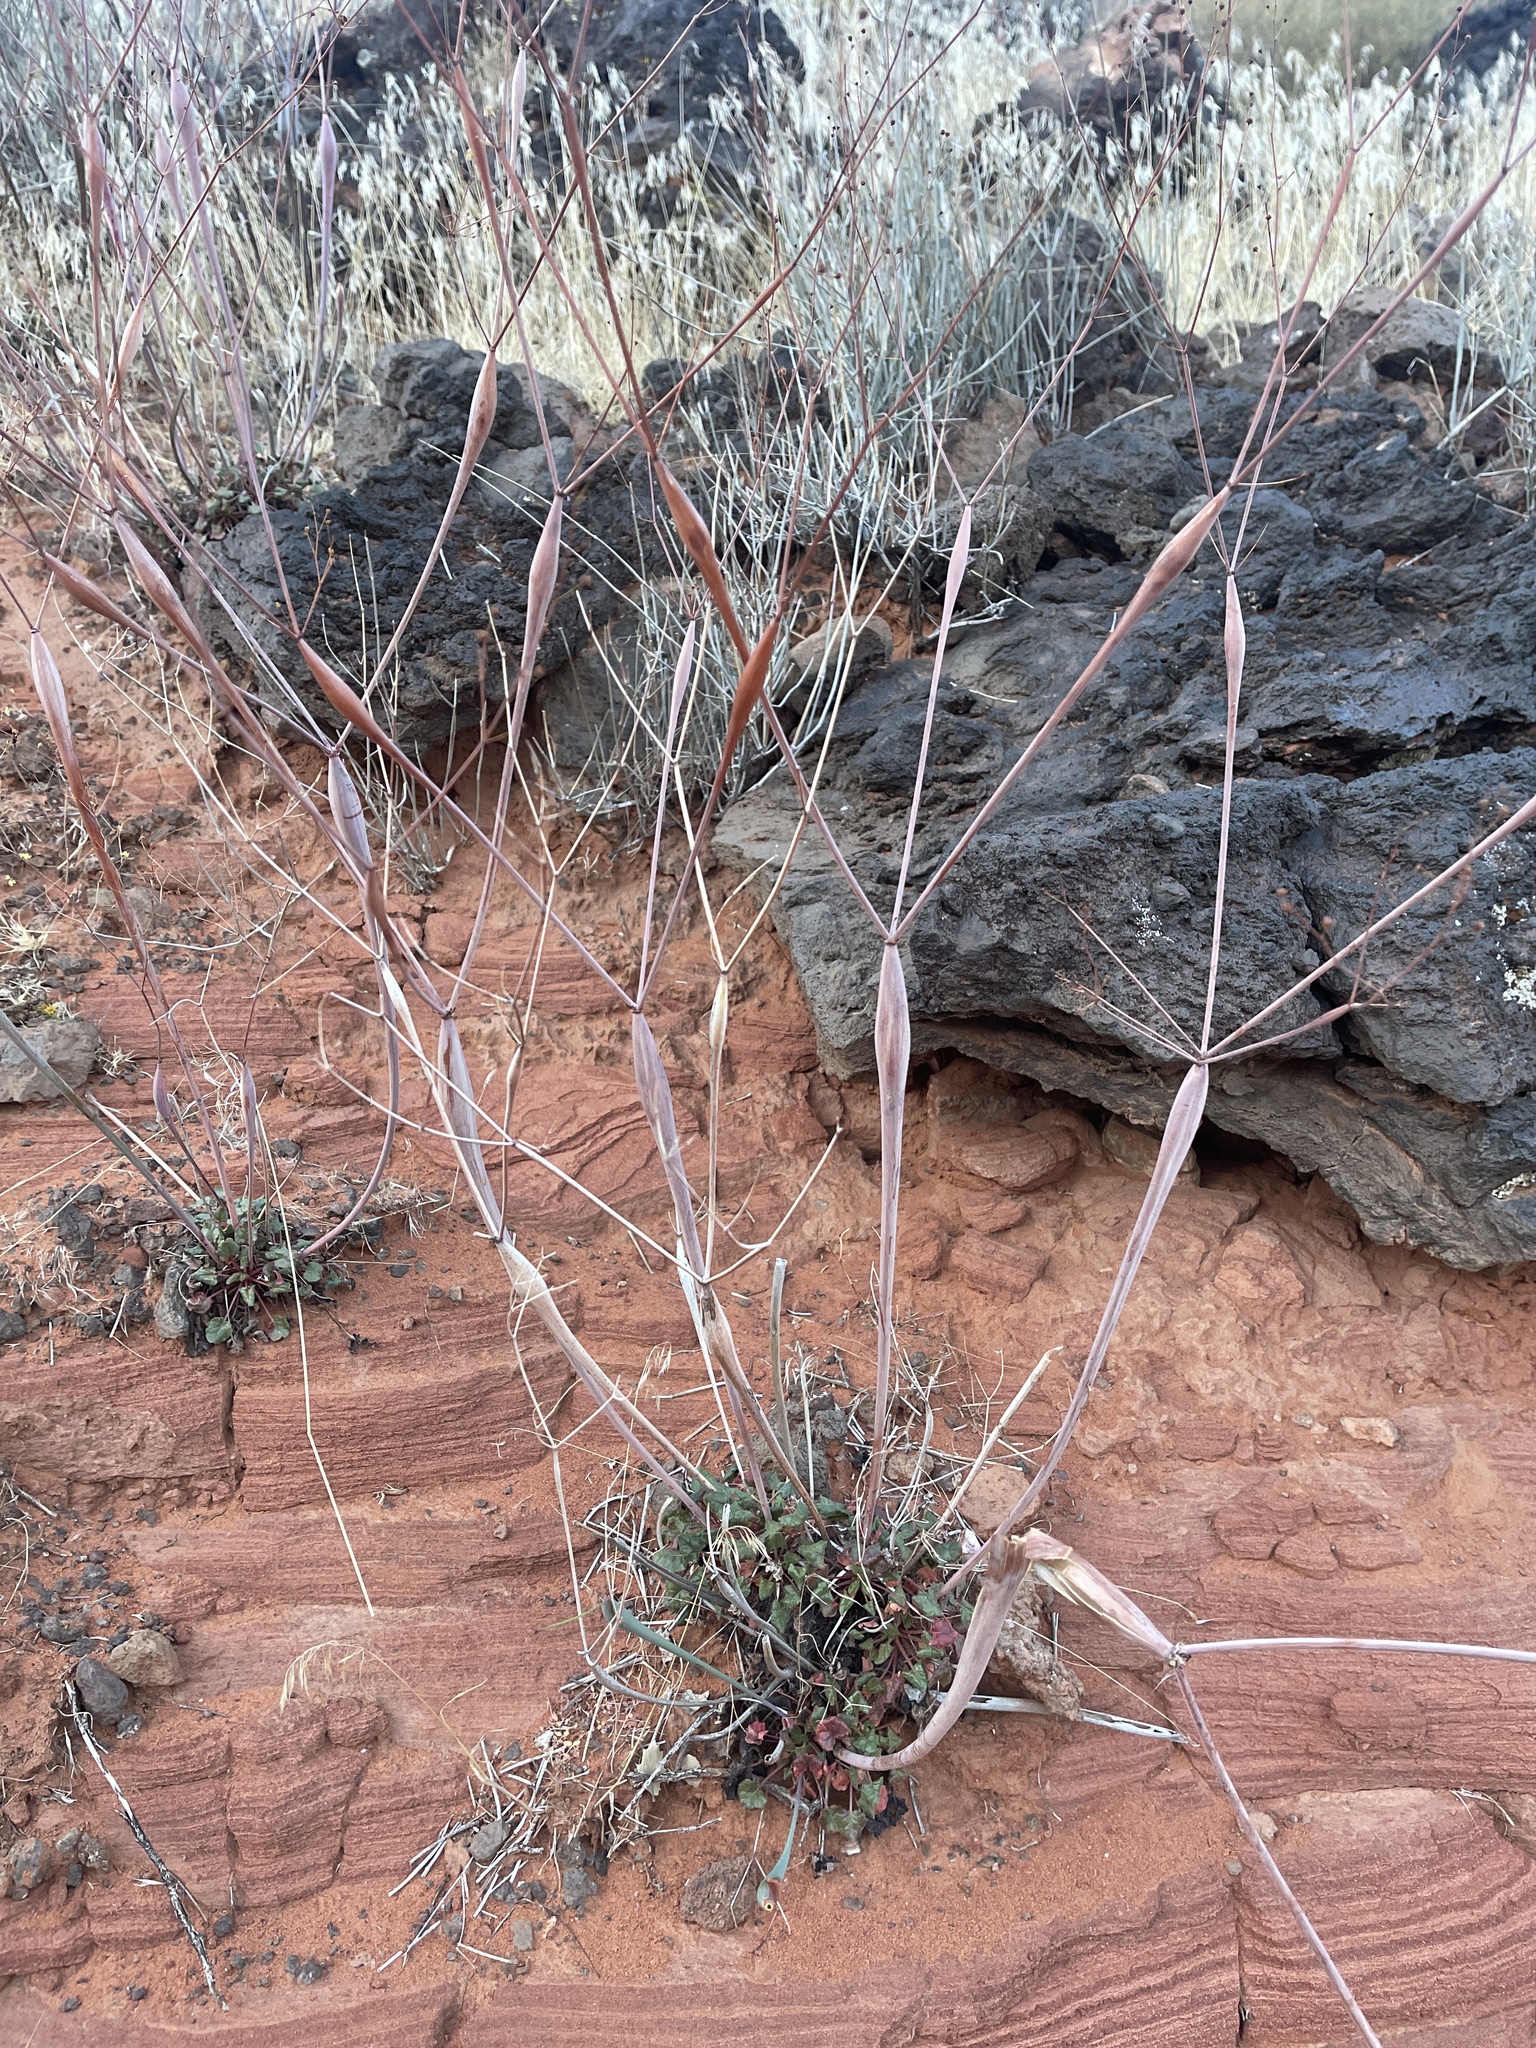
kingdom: Plantae
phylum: Tracheophyta
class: Magnoliopsida
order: Caryophyllales
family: Polygonaceae
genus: Eriogonum
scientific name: Eriogonum inflatum
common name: Desert trumpet
